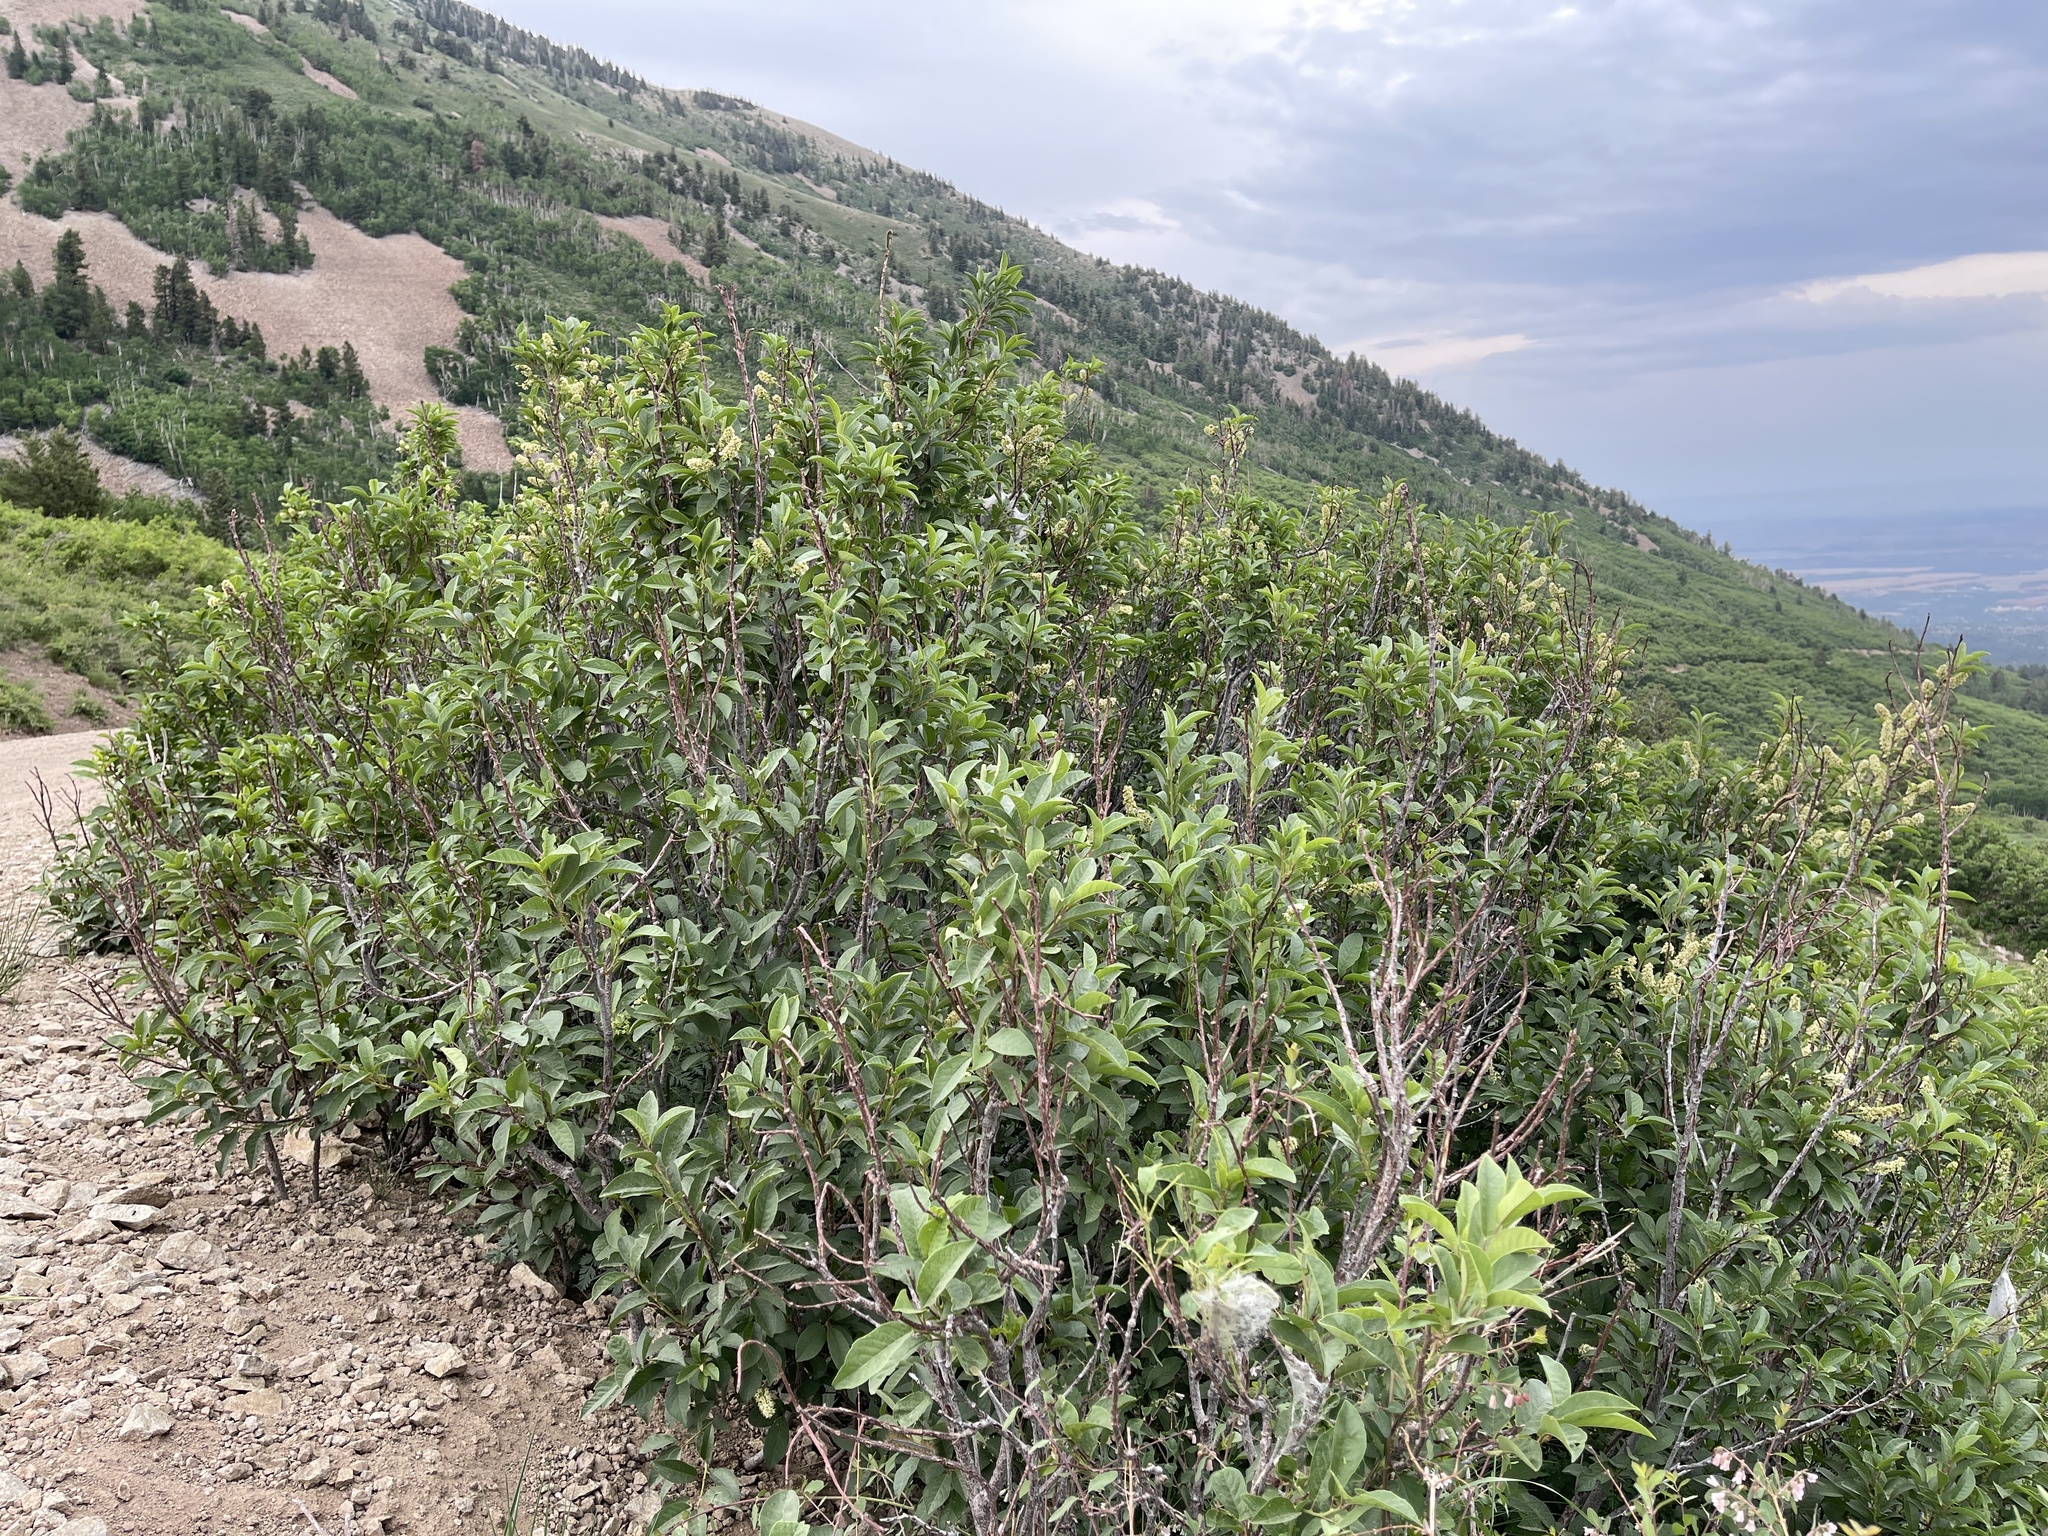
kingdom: Plantae
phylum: Tracheophyta
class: Magnoliopsida
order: Rosales
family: Rosaceae
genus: Prunus
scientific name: Prunus virginiana
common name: Chokecherry
